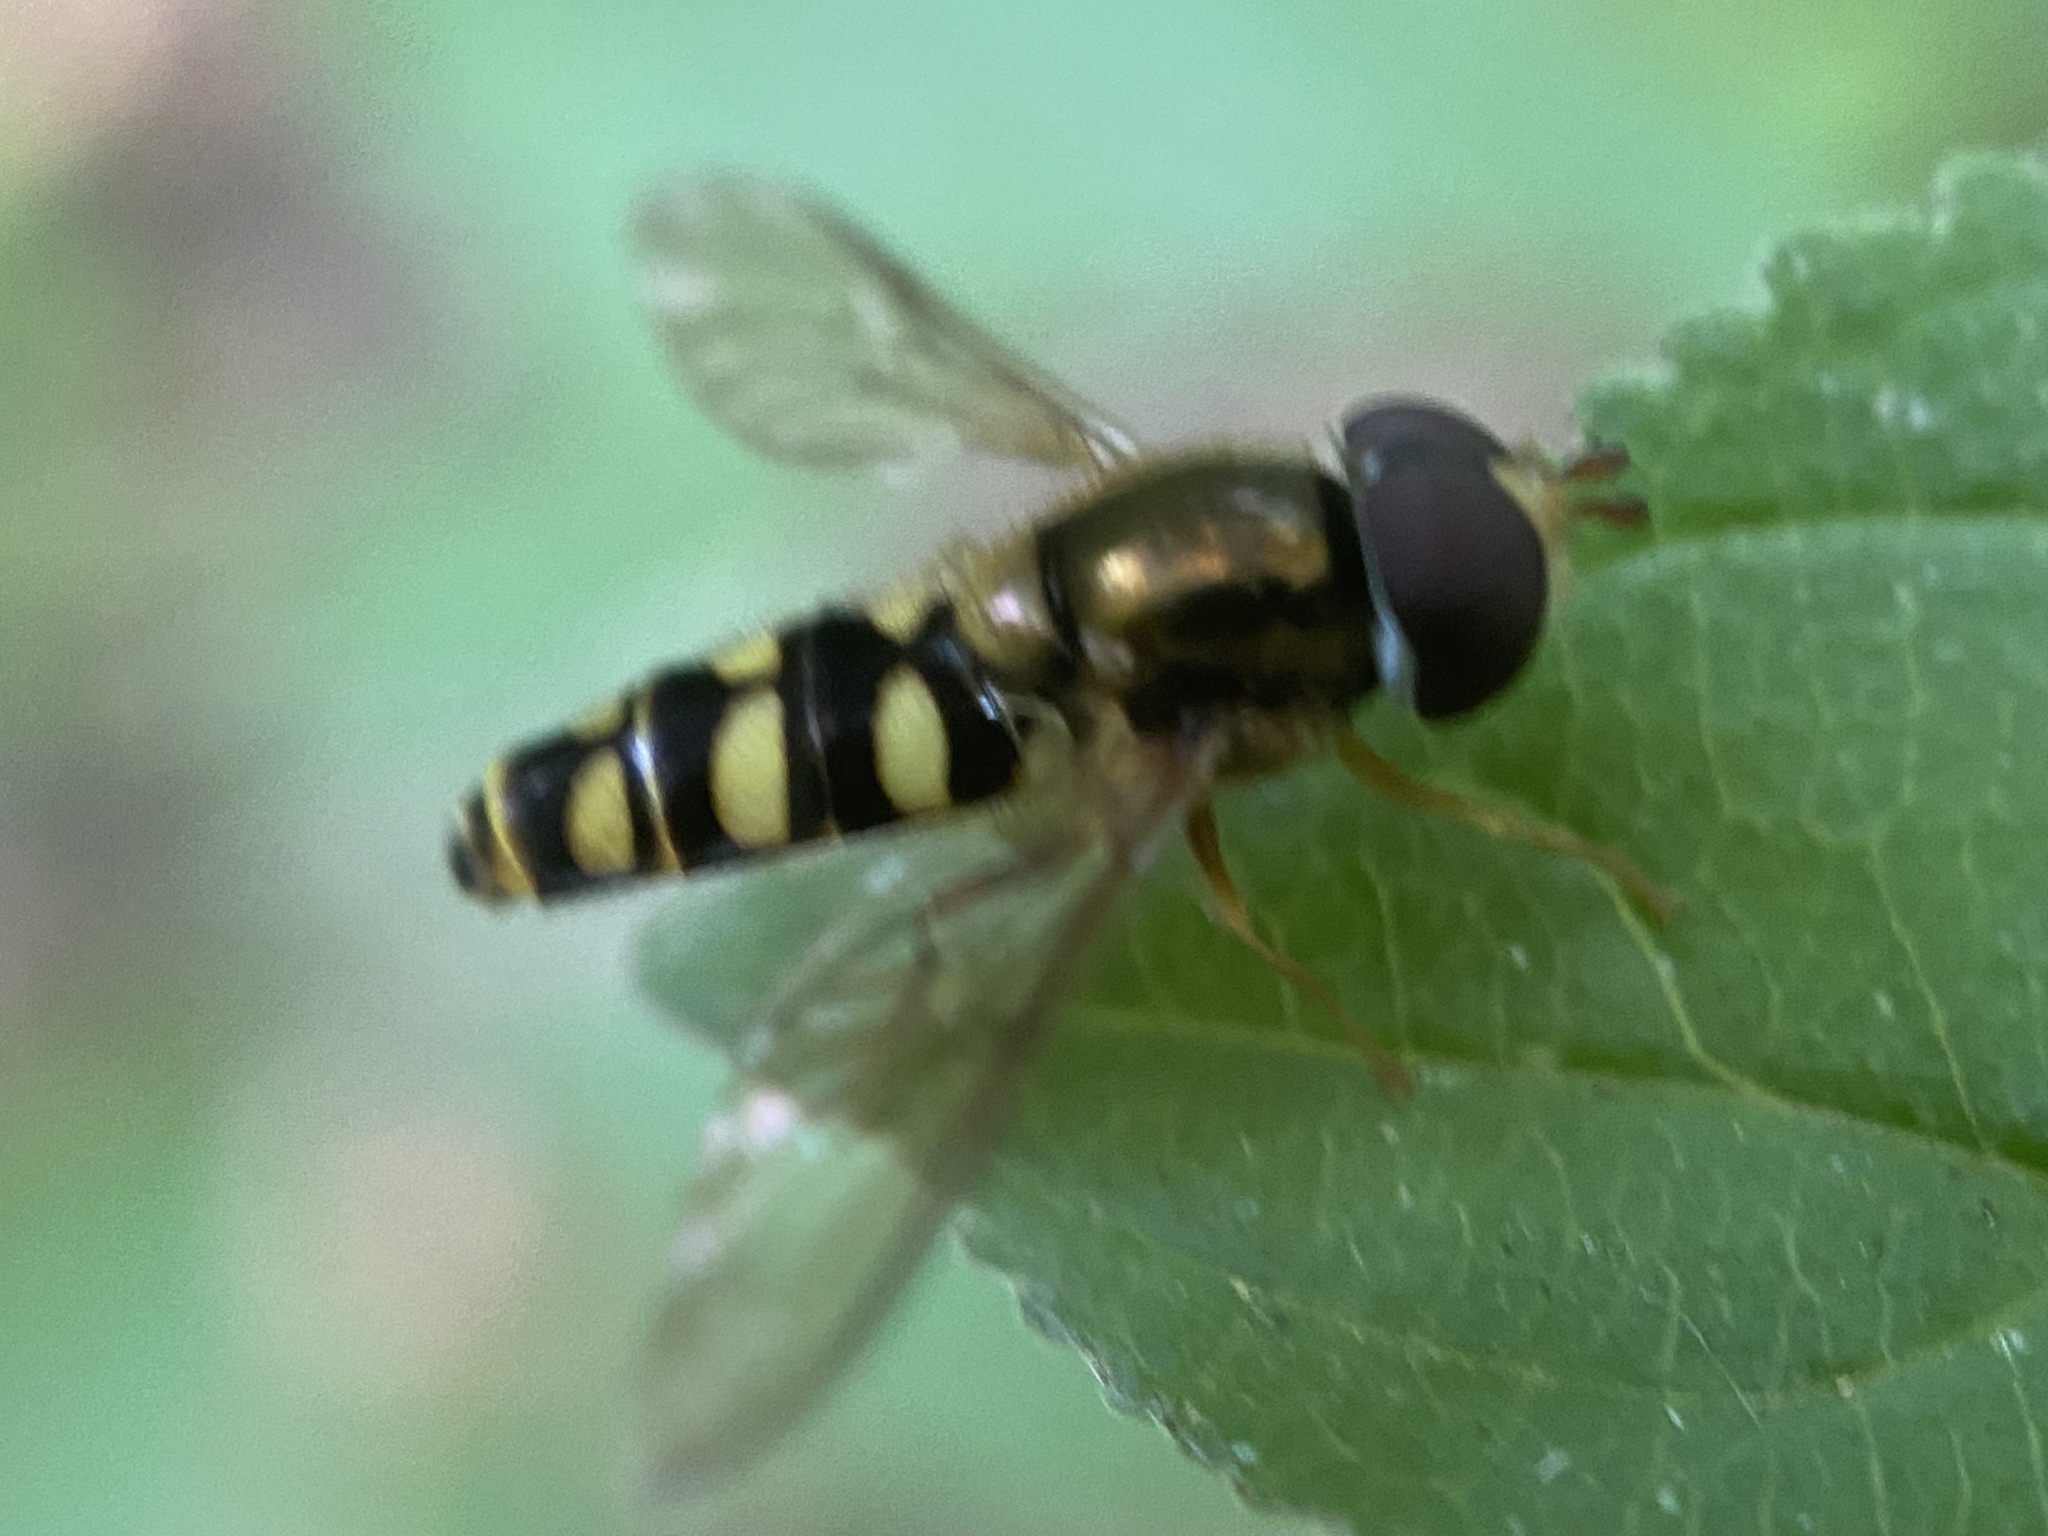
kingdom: Animalia
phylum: Arthropoda
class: Insecta
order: Diptera
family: Syrphidae
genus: Epistrophella
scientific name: Epistrophella emarginata
